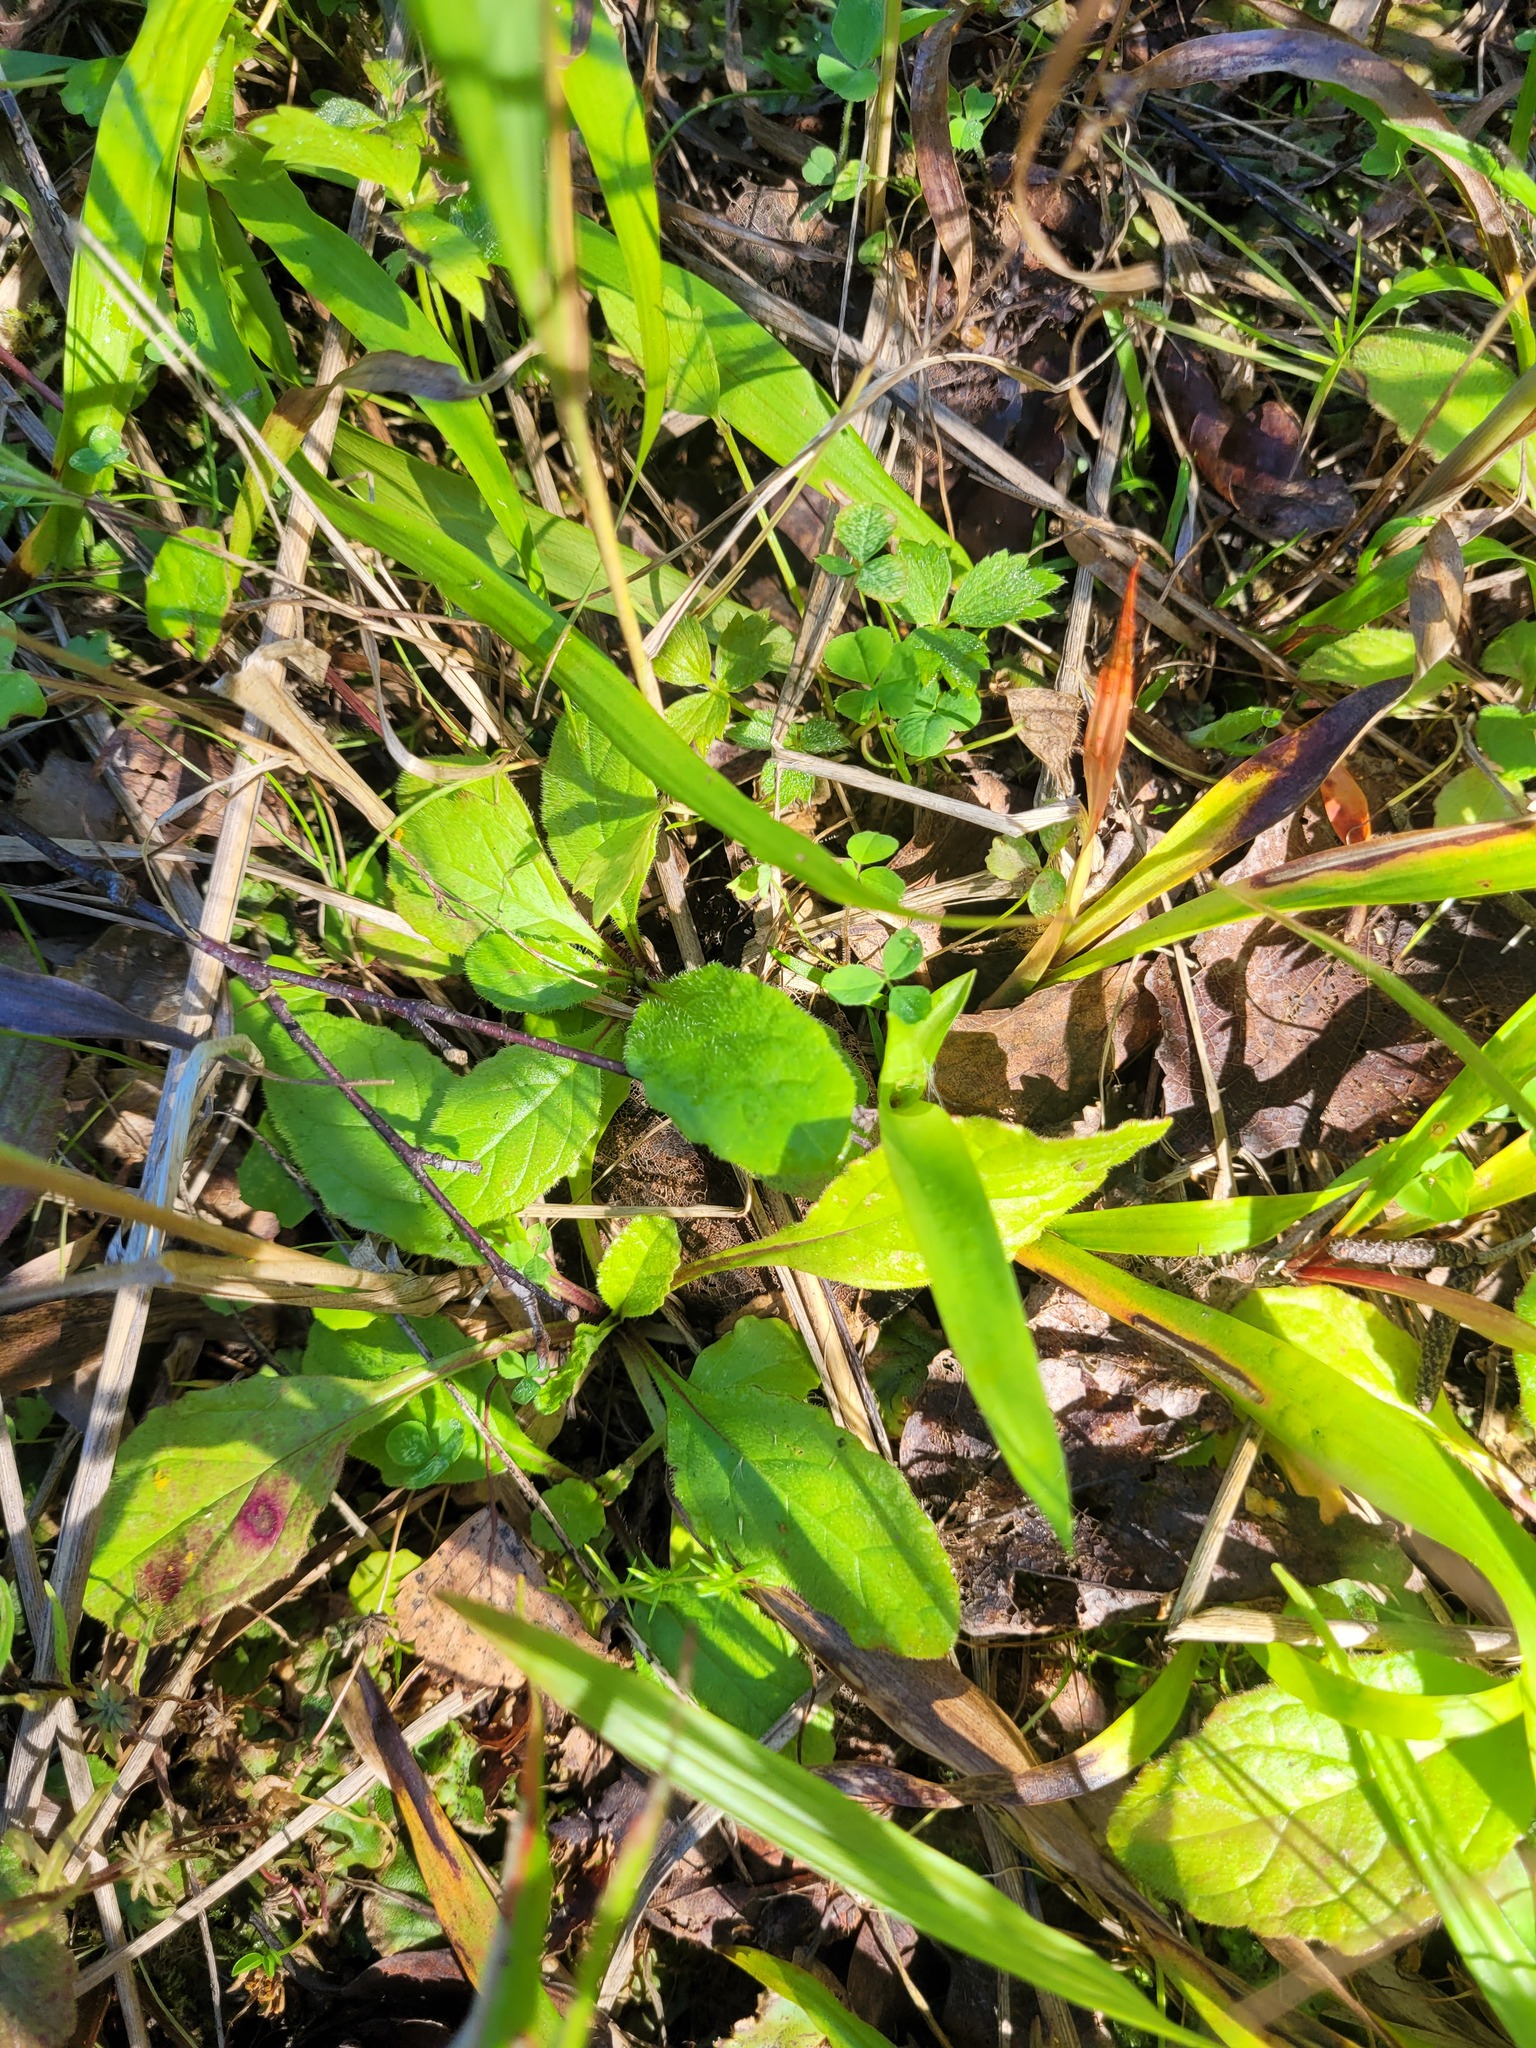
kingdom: Plantae
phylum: Tracheophyta
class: Magnoliopsida
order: Lamiales
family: Lamiaceae
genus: Ajuga
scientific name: Ajuga reptans
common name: Bugle
